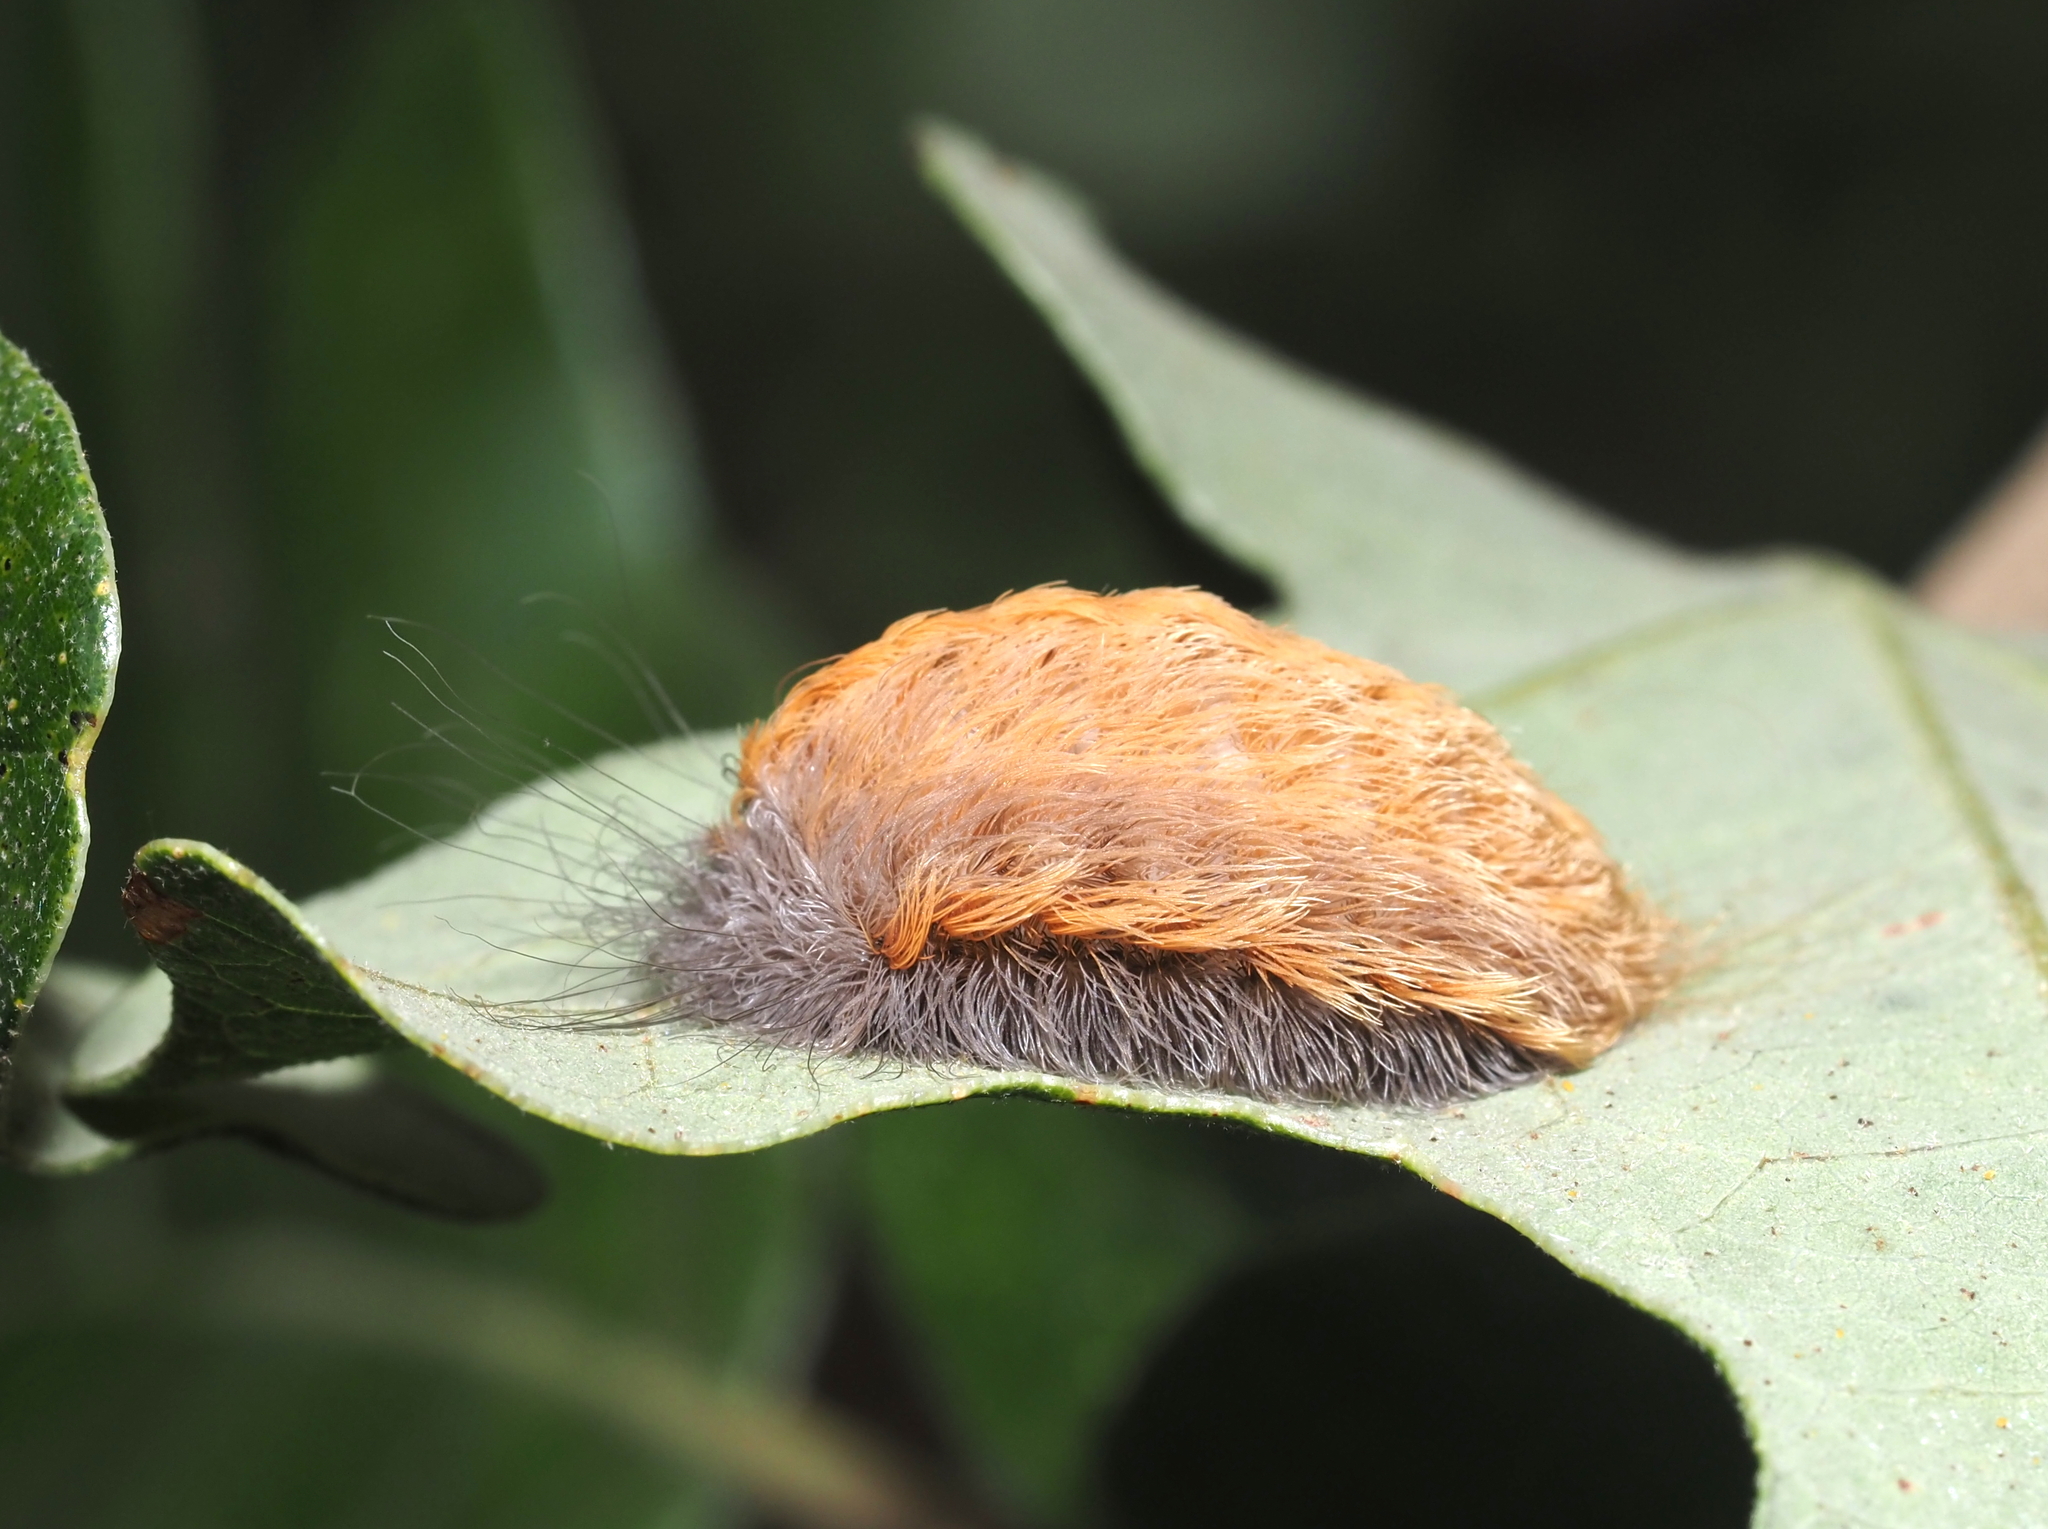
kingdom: Animalia
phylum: Arthropoda
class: Insecta
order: Lepidoptera
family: Megalopygidae
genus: Megalopyge
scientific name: Megalopyge crispata
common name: Black-waved flannel moth
